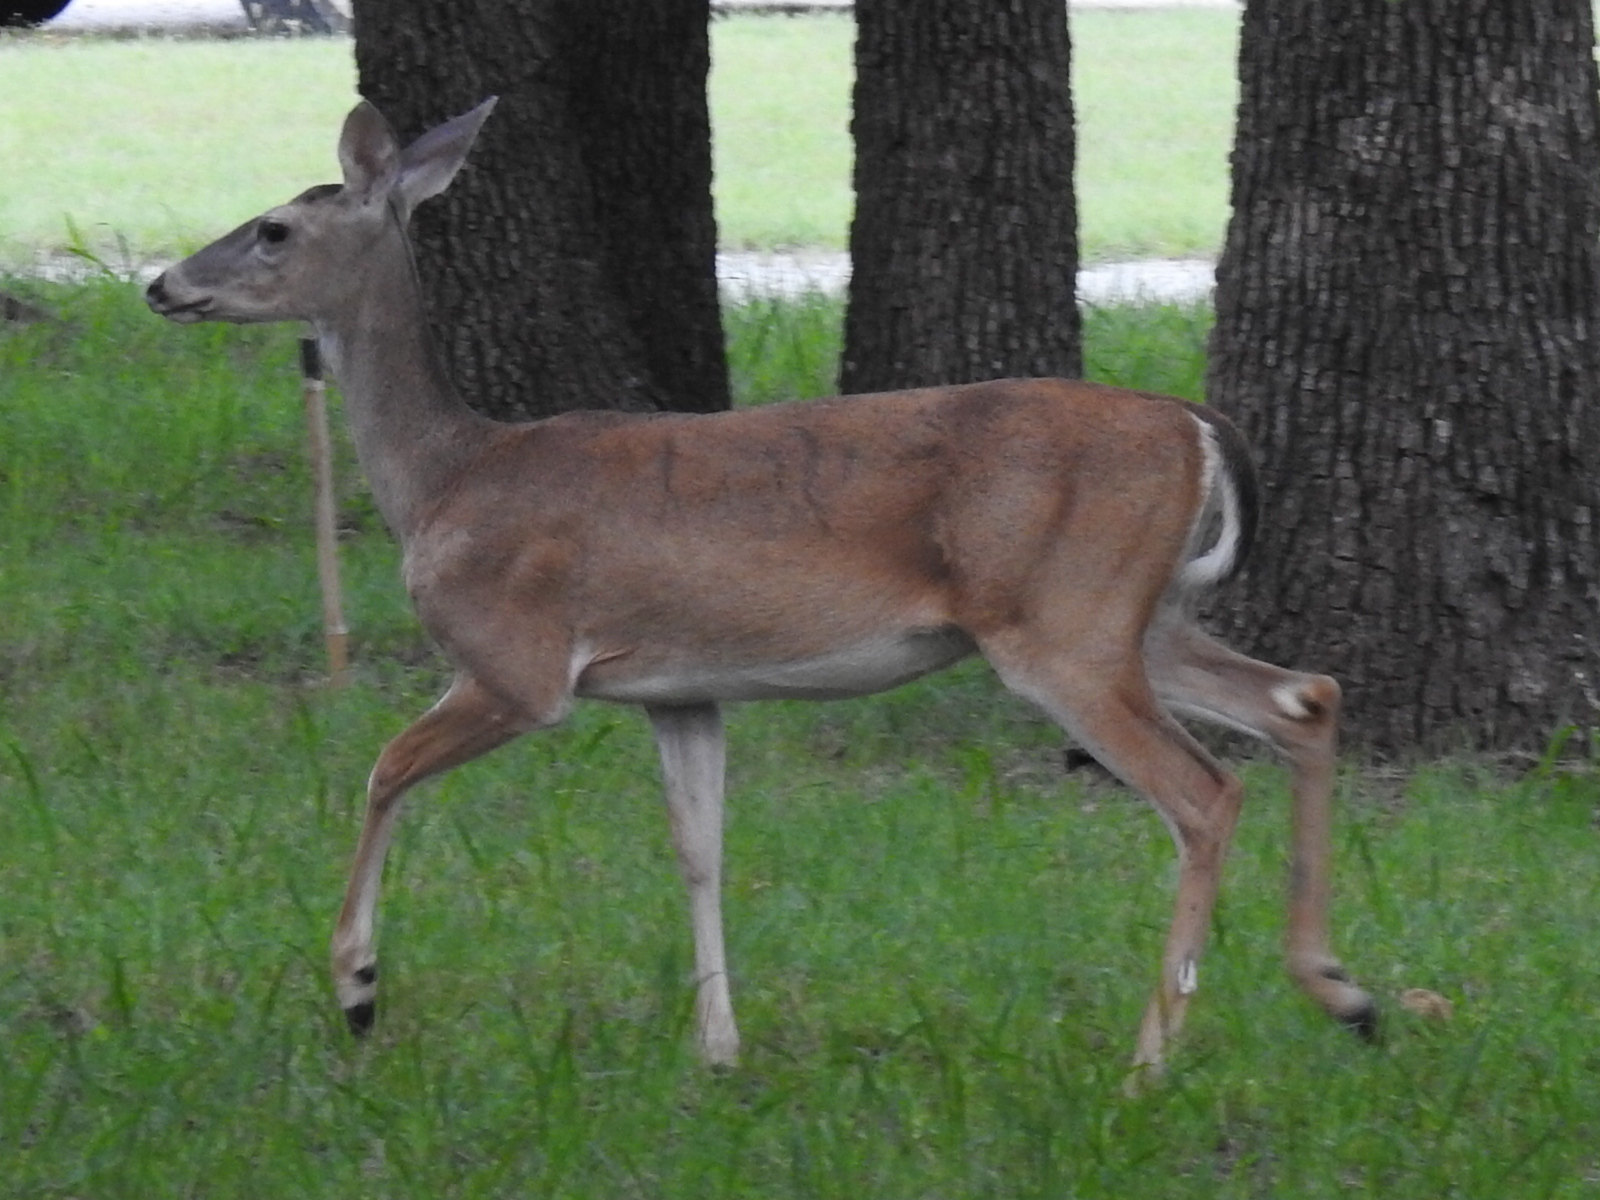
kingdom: Animalia
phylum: Chordata
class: Mammalia
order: Artiodactyla
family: Cervidae
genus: Odocoileus
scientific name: Odocoileus virginianus
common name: White-tailed deer
